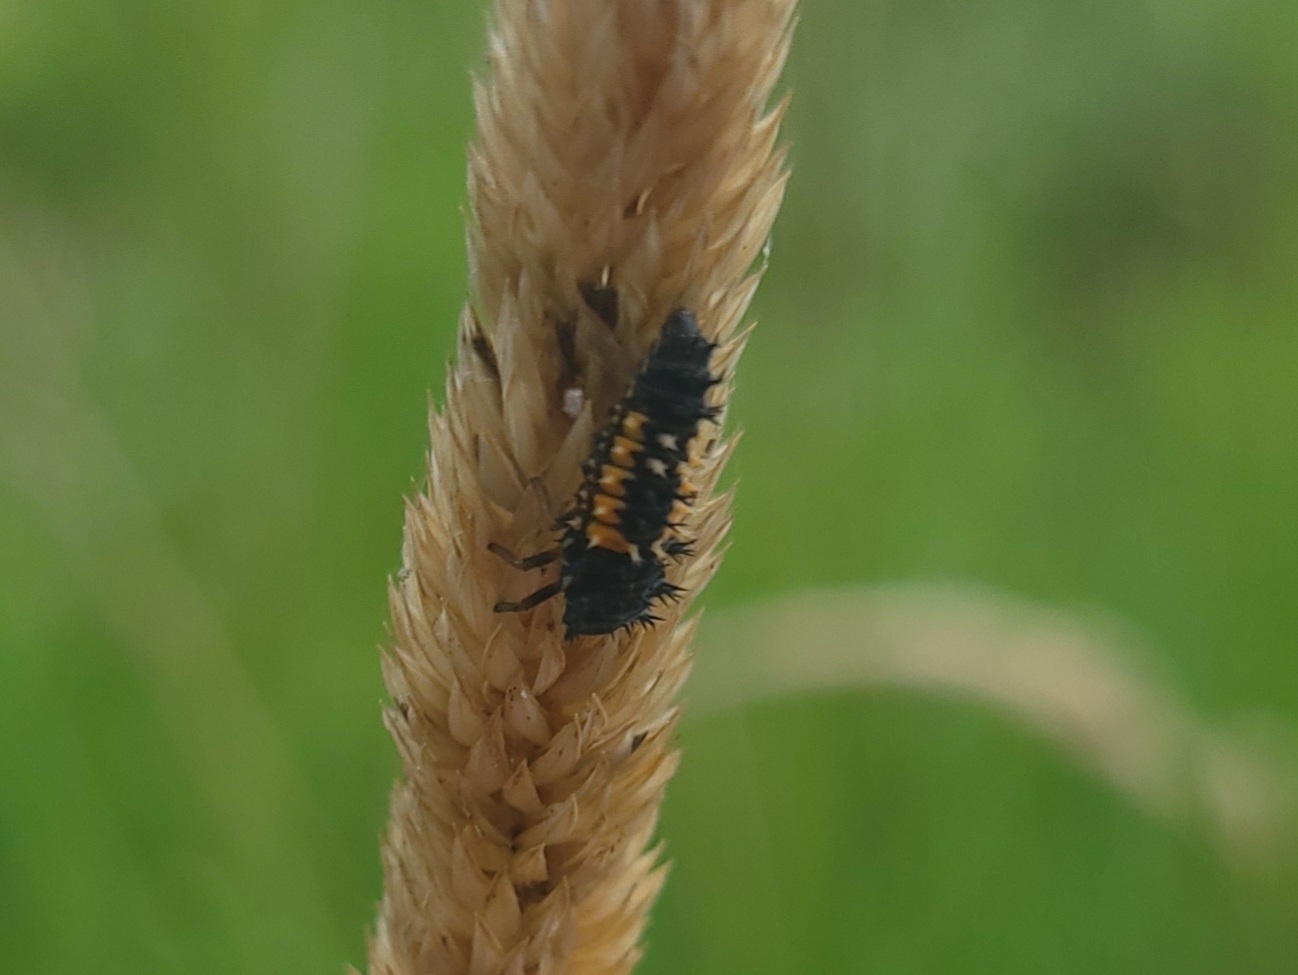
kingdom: Animalia
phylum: Arthropoda
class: Insecta
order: Coleoptera
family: Coccinellidae
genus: Harmonia
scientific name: Harmonia axyridis
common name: Harlequin ladybird
